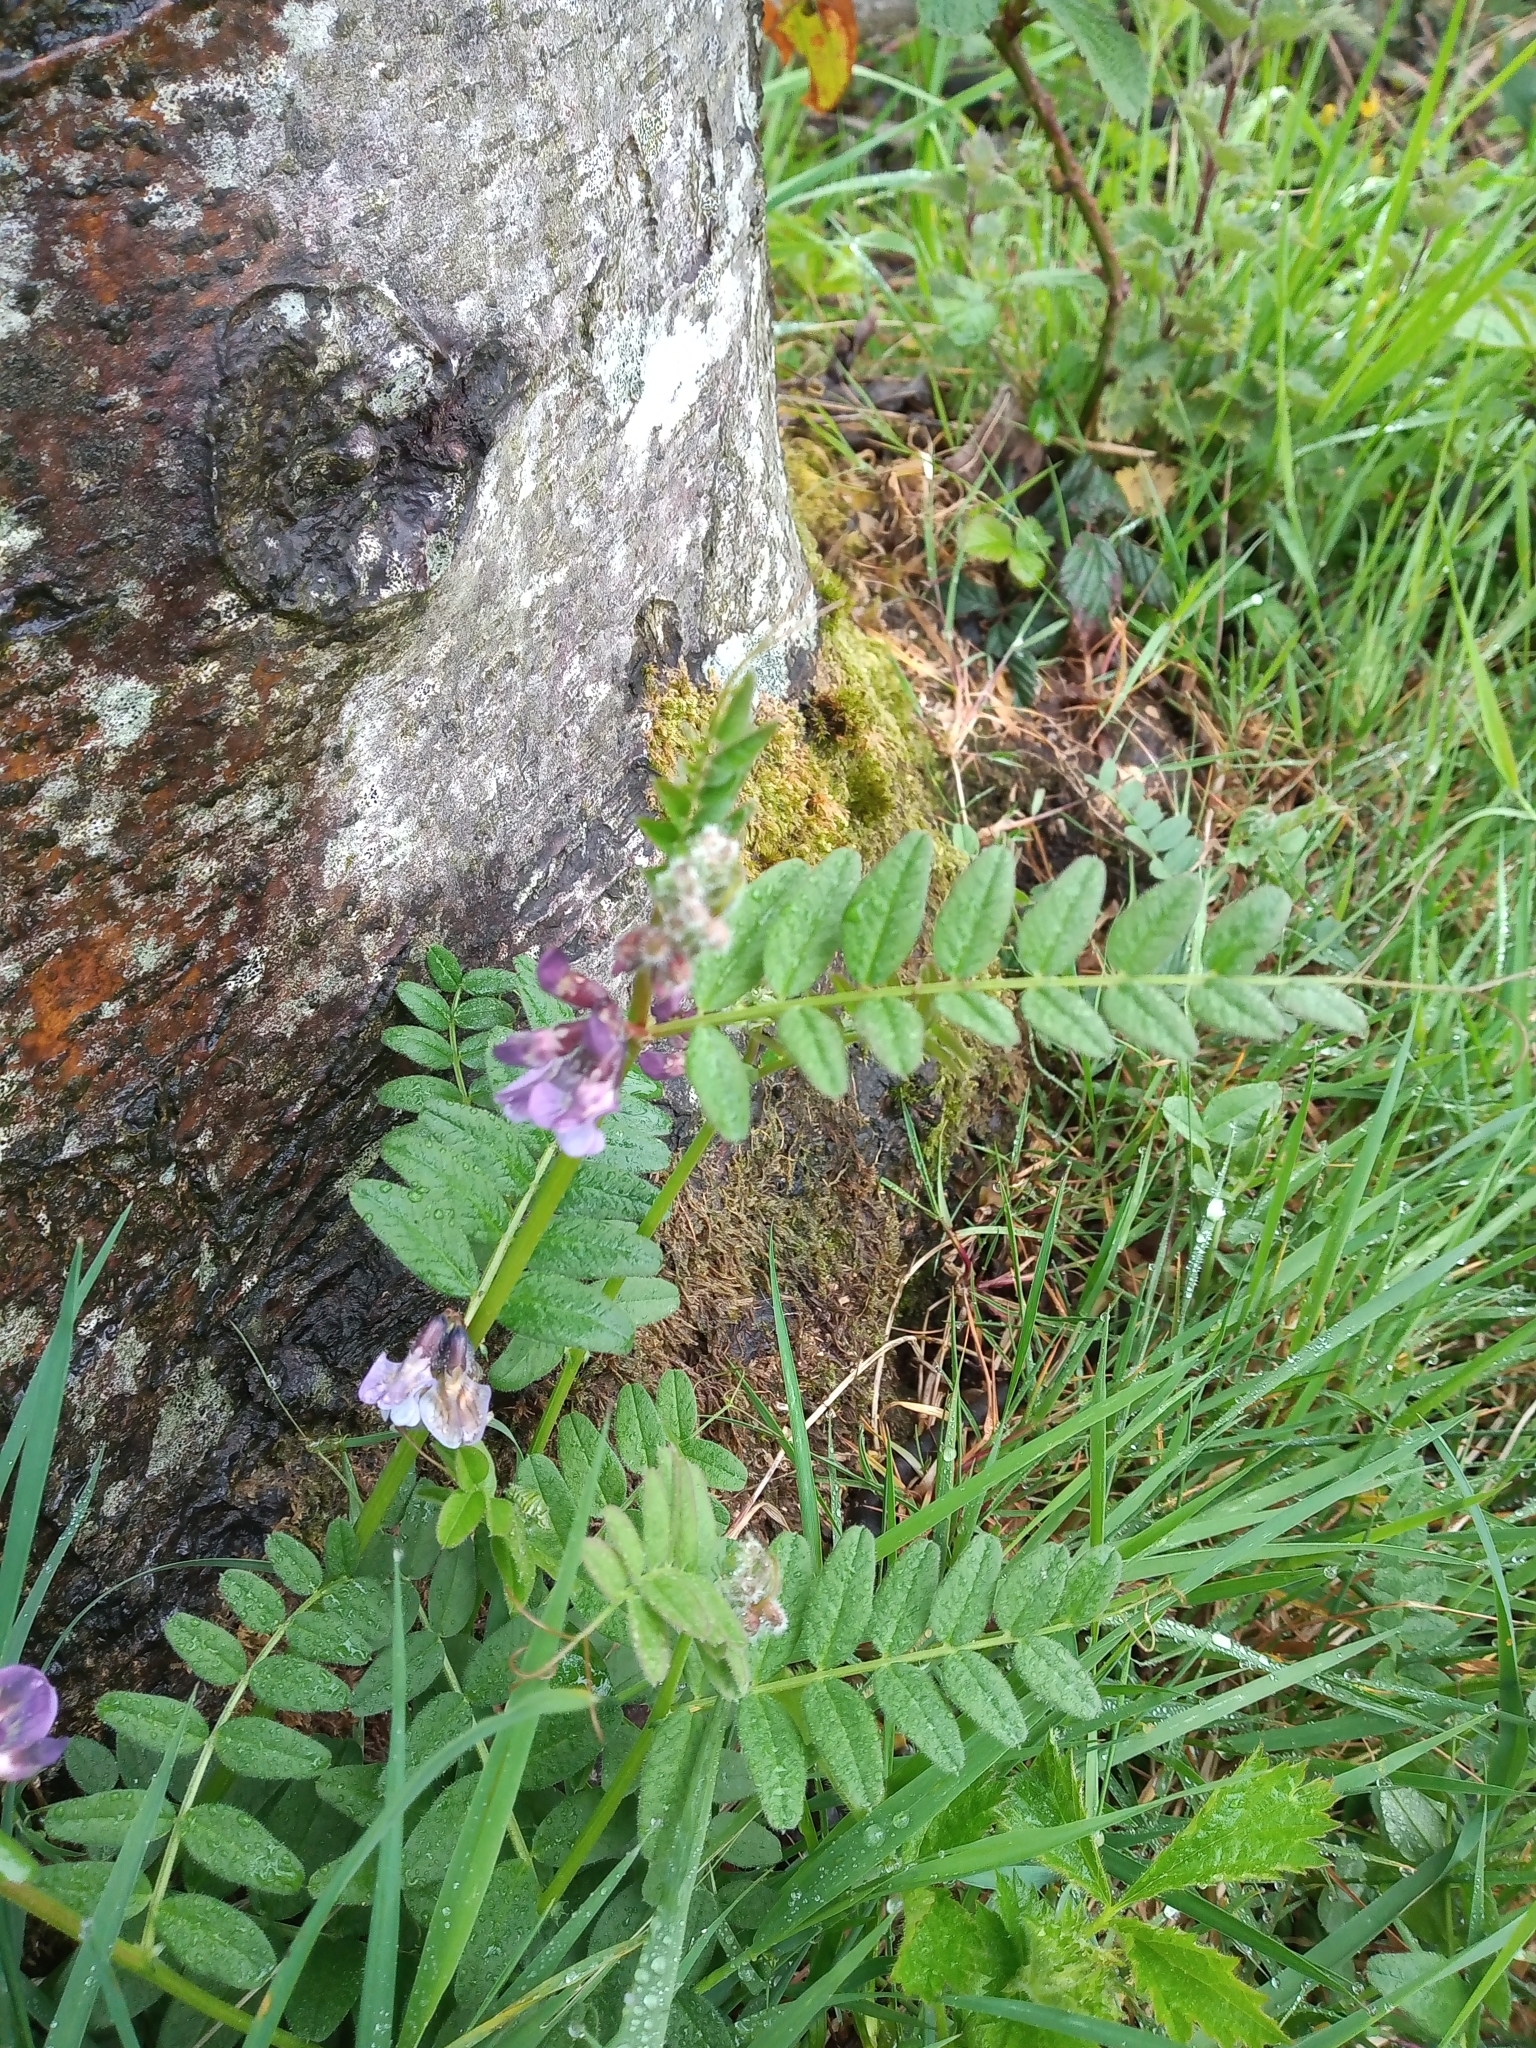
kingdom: Plantae
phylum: Tracheophyta
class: Magnoliopsida
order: Fabales
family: Fabaceae
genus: Vicia
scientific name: Vicia sepium
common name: Bush vetch
